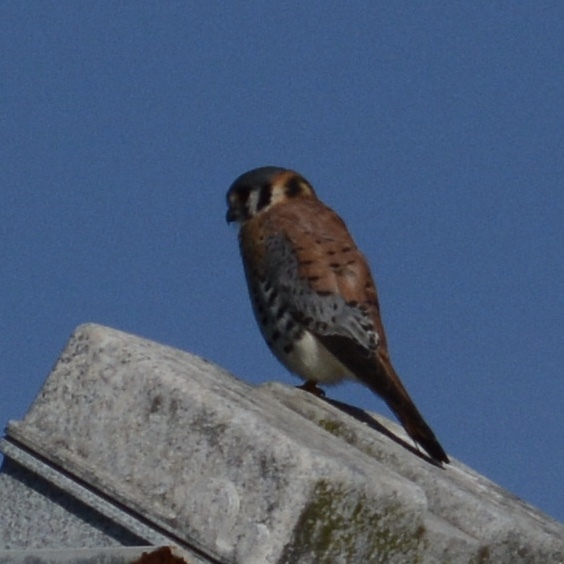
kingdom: Animalia
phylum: Chordata
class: Aves
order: Falconiformes
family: Falconidae
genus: Falco
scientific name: Falco sparverius
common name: American kestrel
